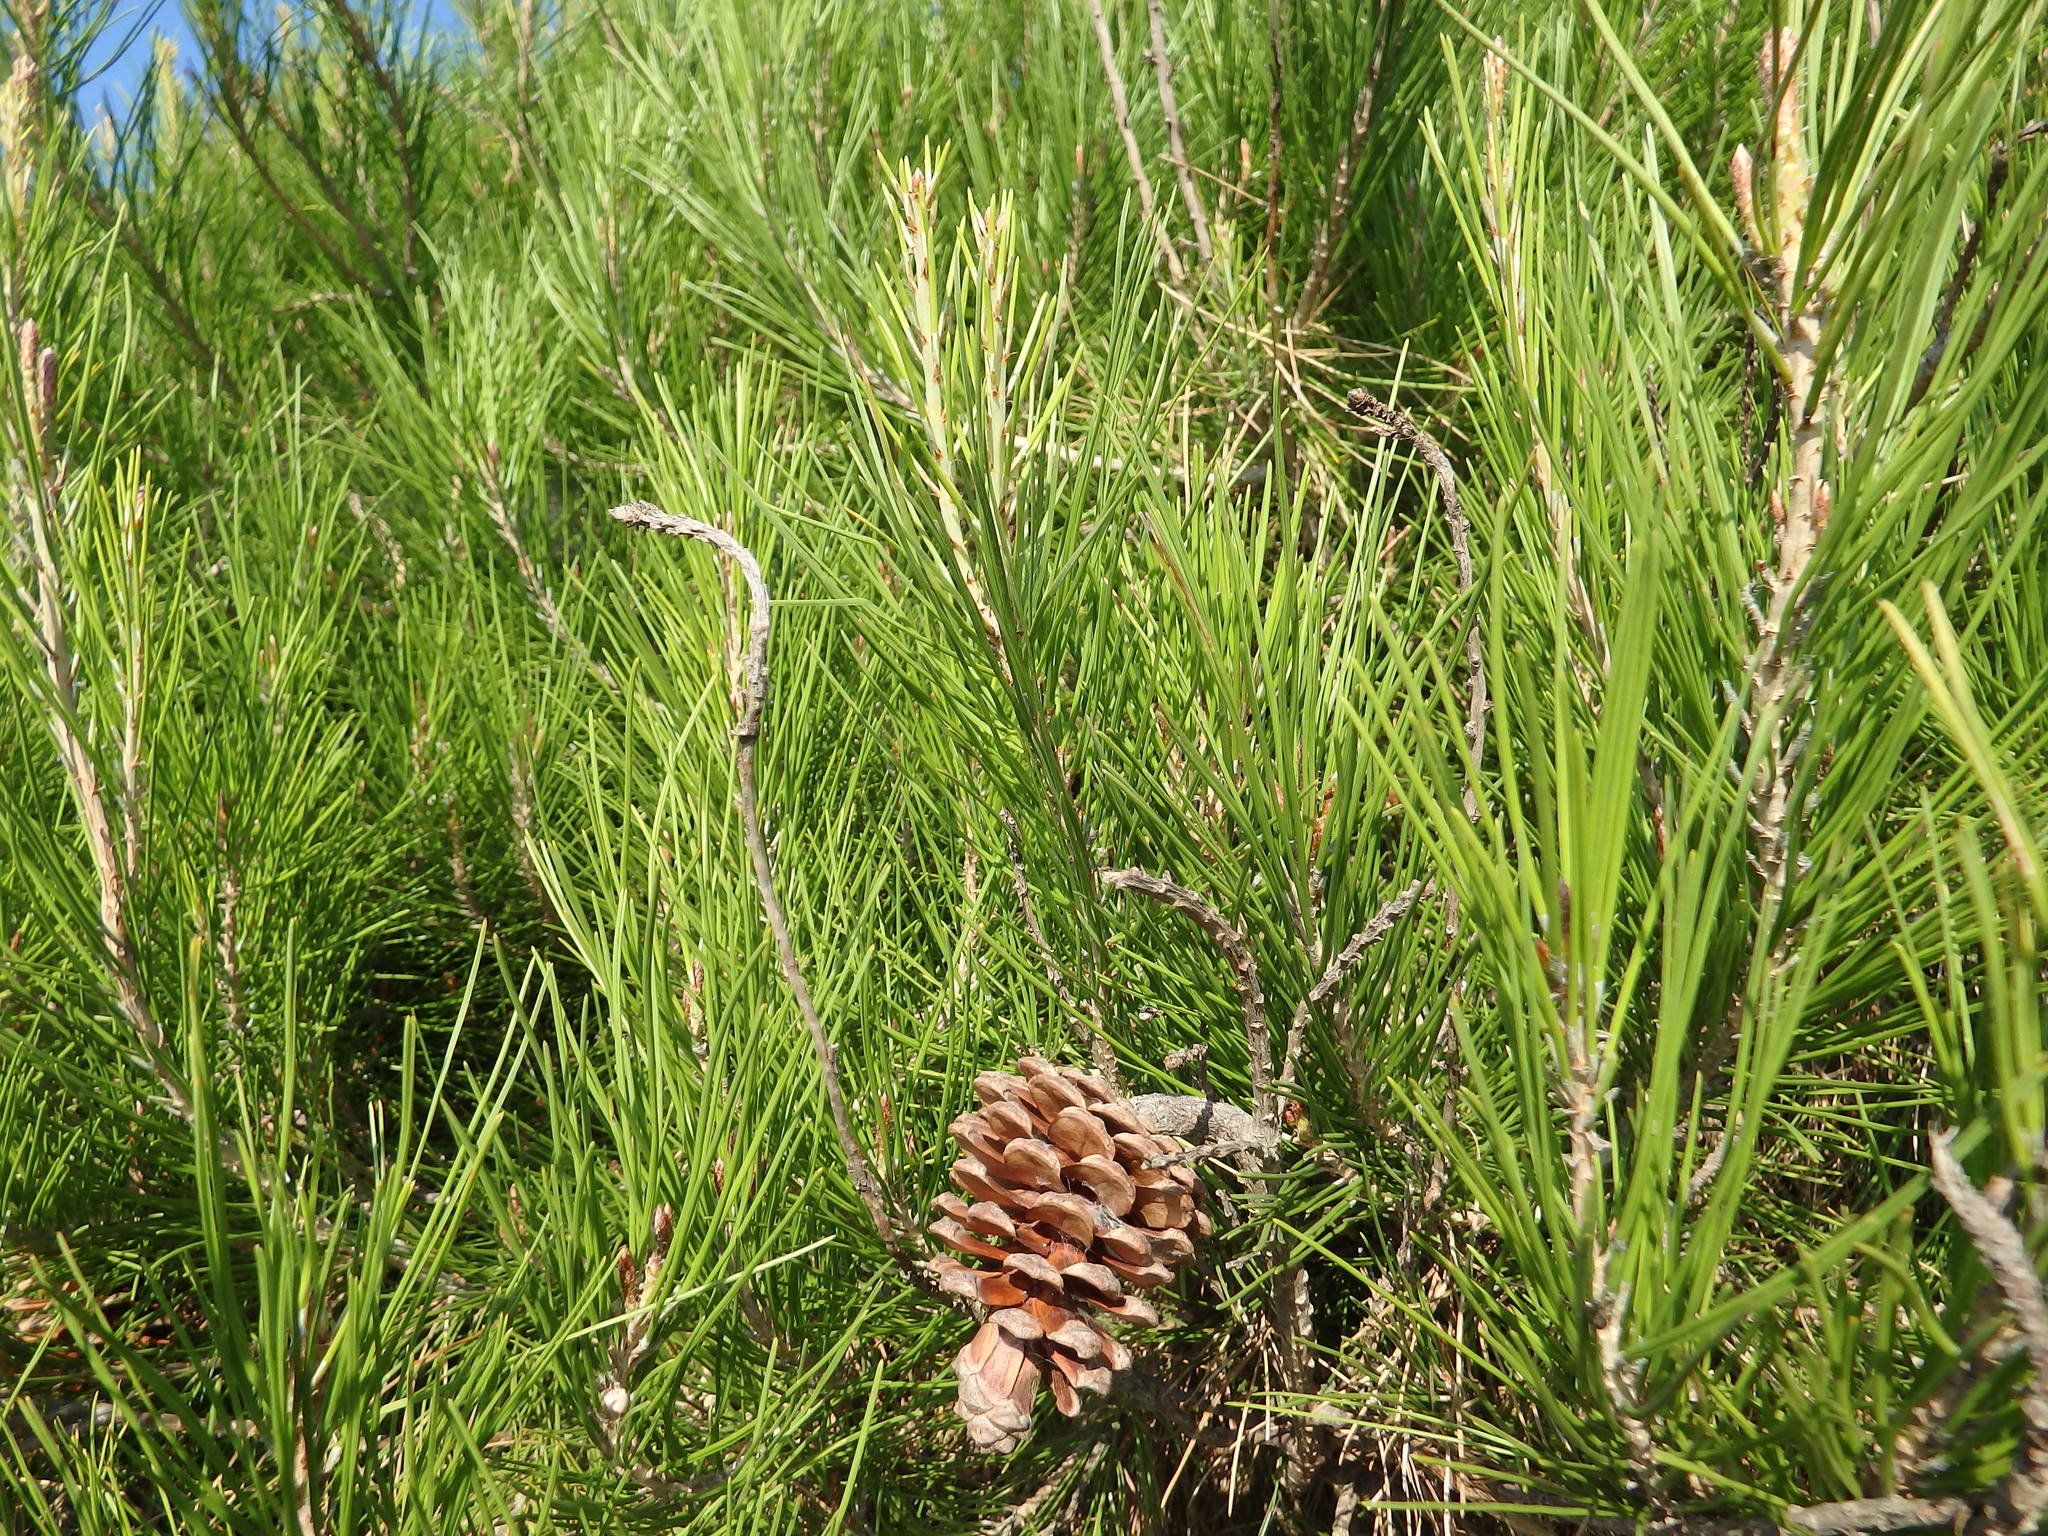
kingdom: Plantae
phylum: Tracheophyta
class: Pinopsida
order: Pinales
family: Pinaceae
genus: Pinus
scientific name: Pinus halepensis
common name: Aleppo pine
